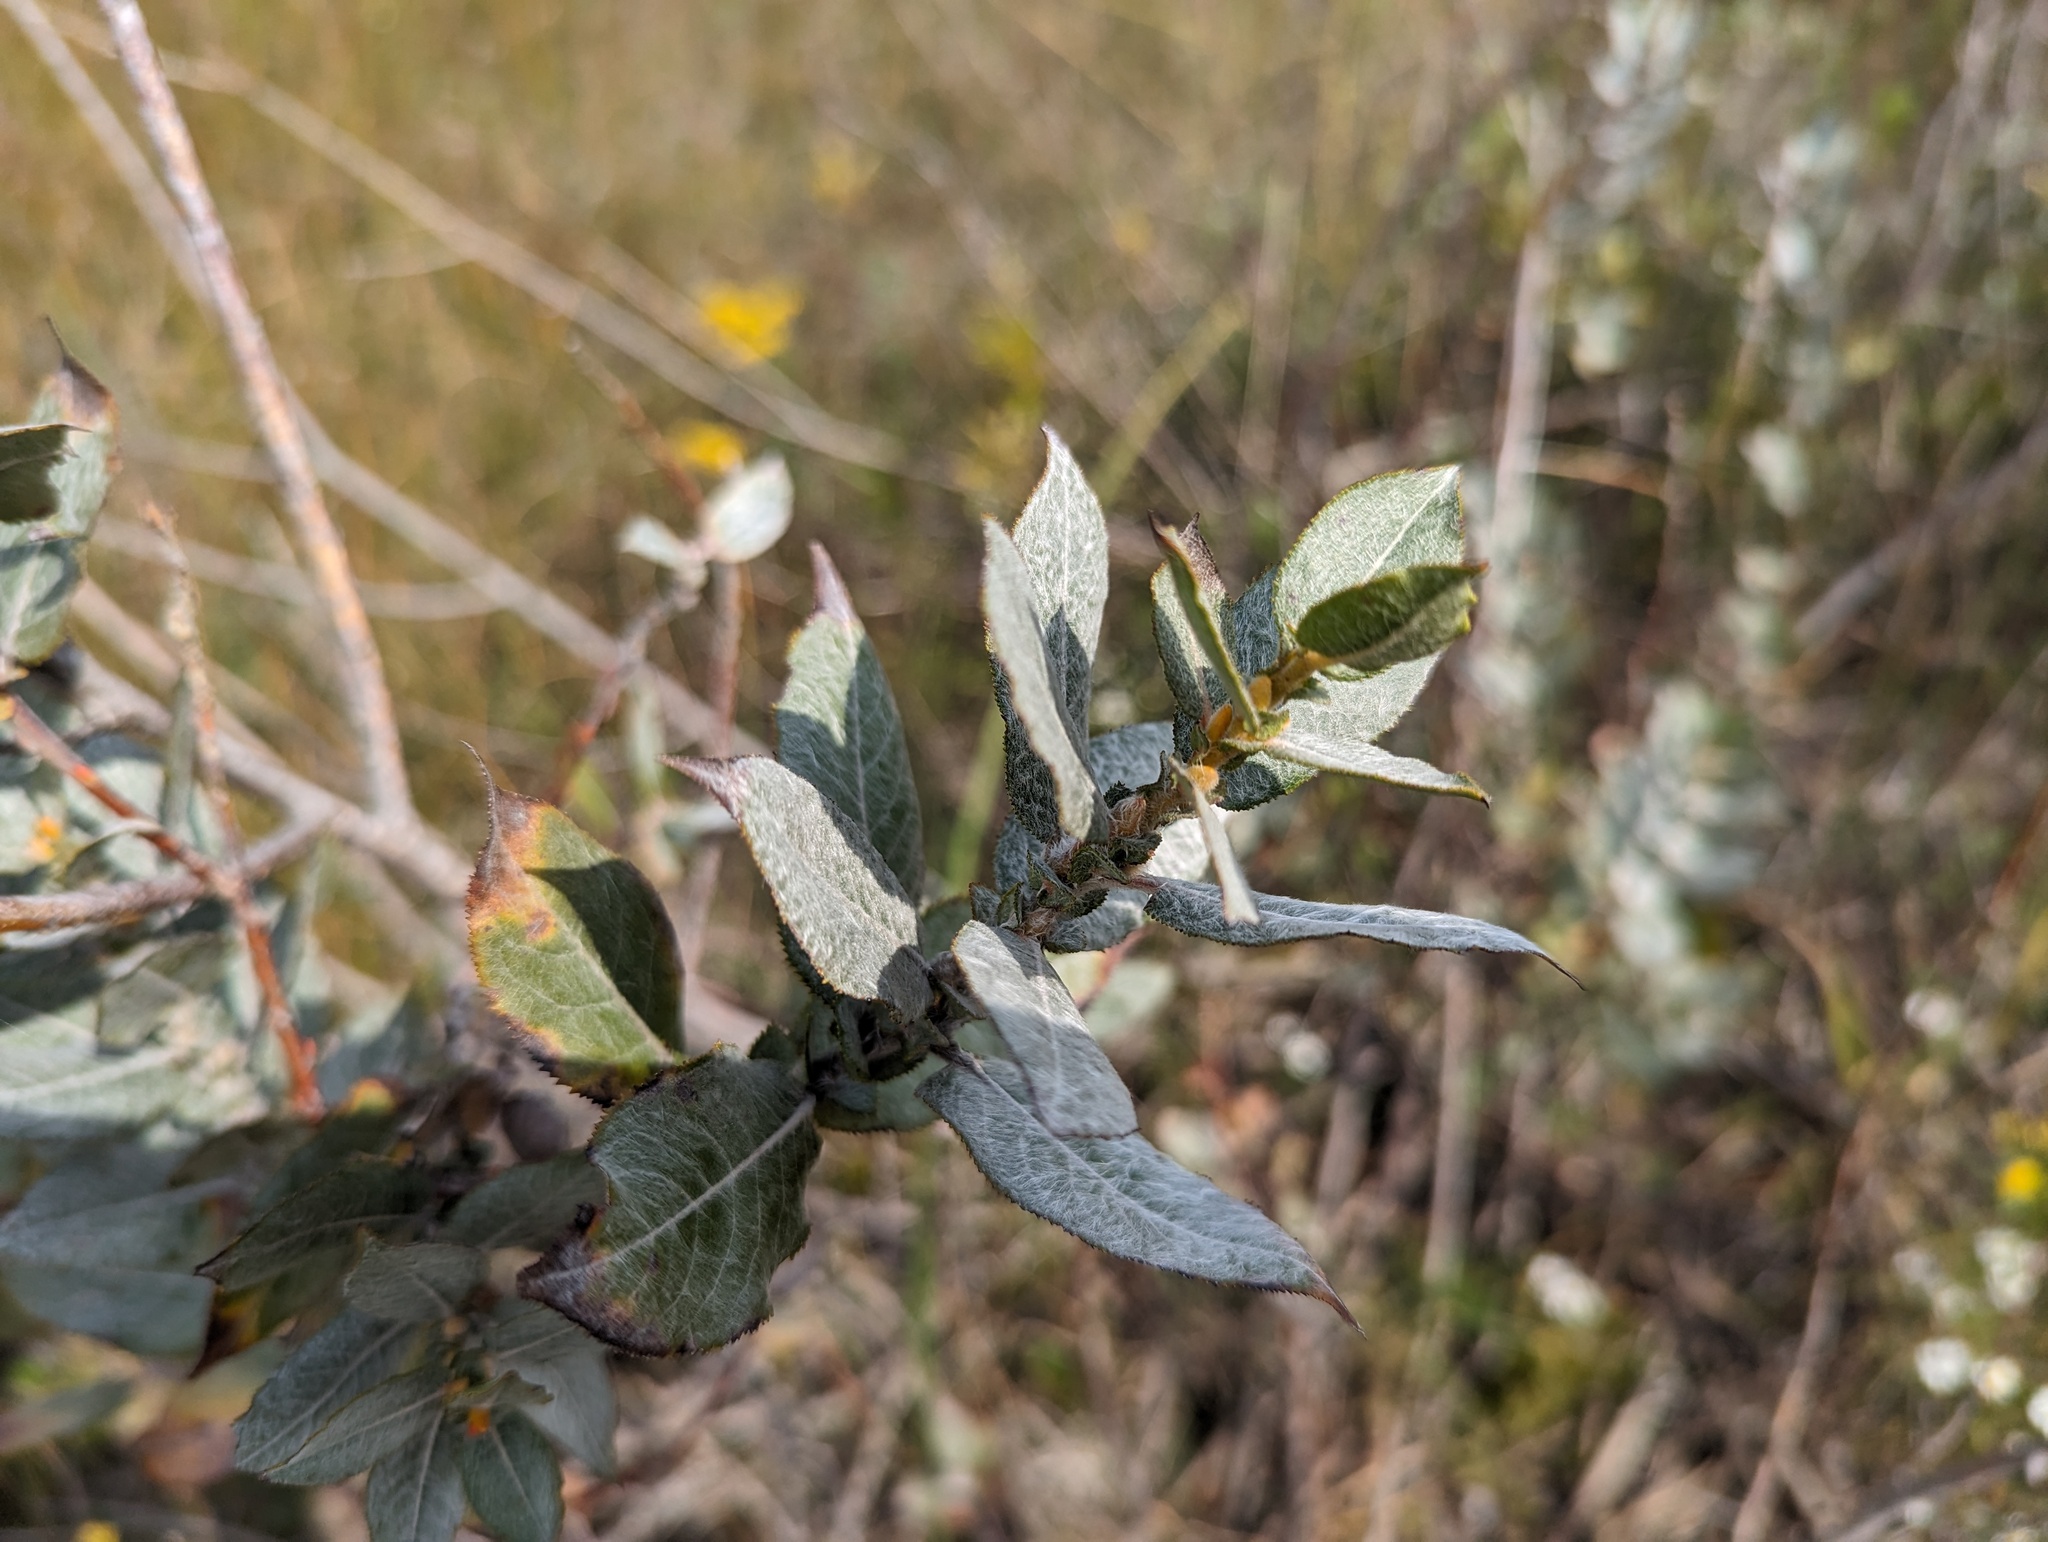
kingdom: Plantae
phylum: Tracheophyta
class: Magnoliopsida
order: Malpighiales
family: Salicaceae
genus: Salix
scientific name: Salix cordata
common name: Heart-leaf willow
